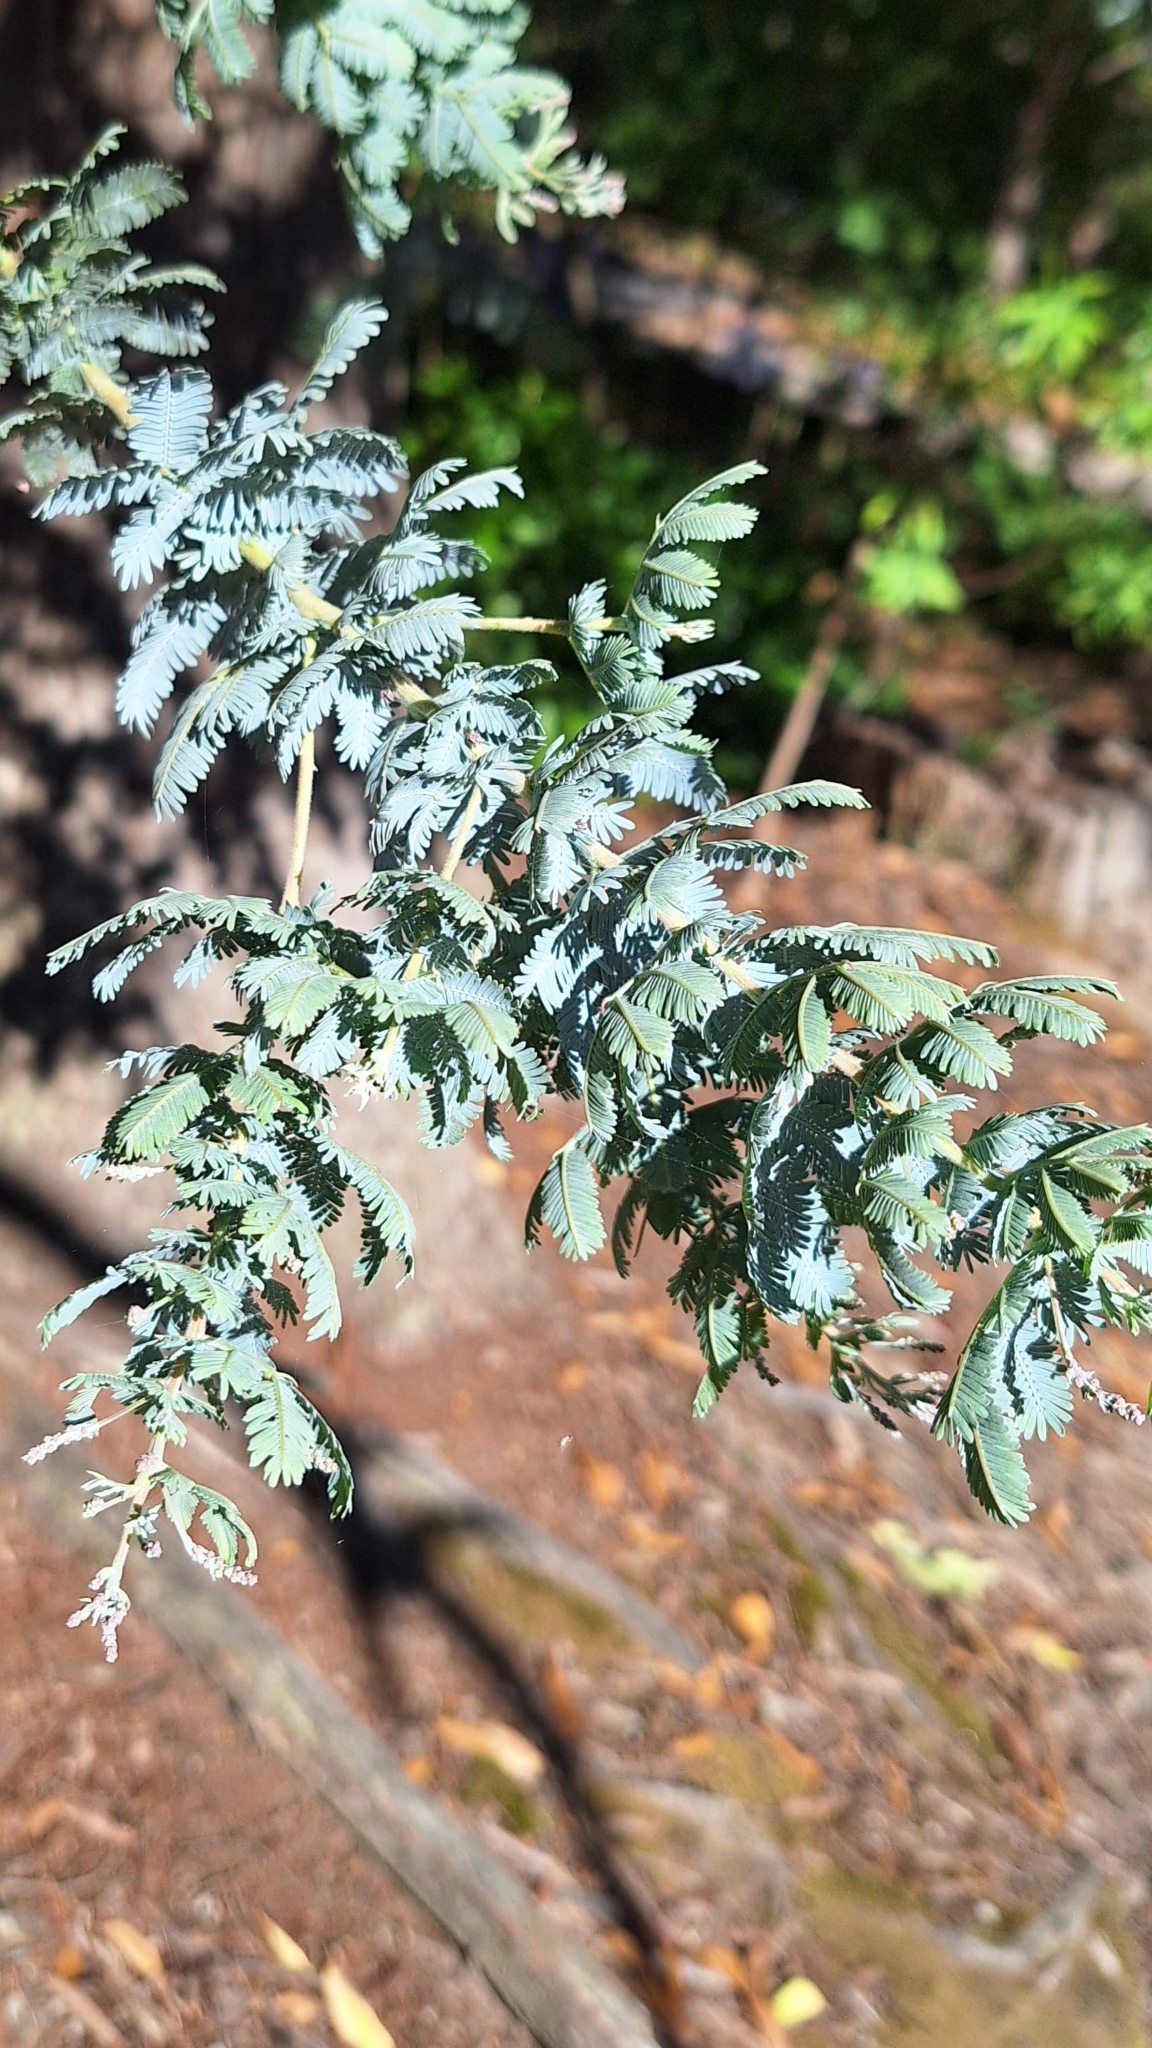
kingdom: Plantae
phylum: Tracheophyta
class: Magnoliopsida
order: Fabales
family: Fabaceae
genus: Acacia
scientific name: Acacia baileyana
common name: Cootamundra wattle
